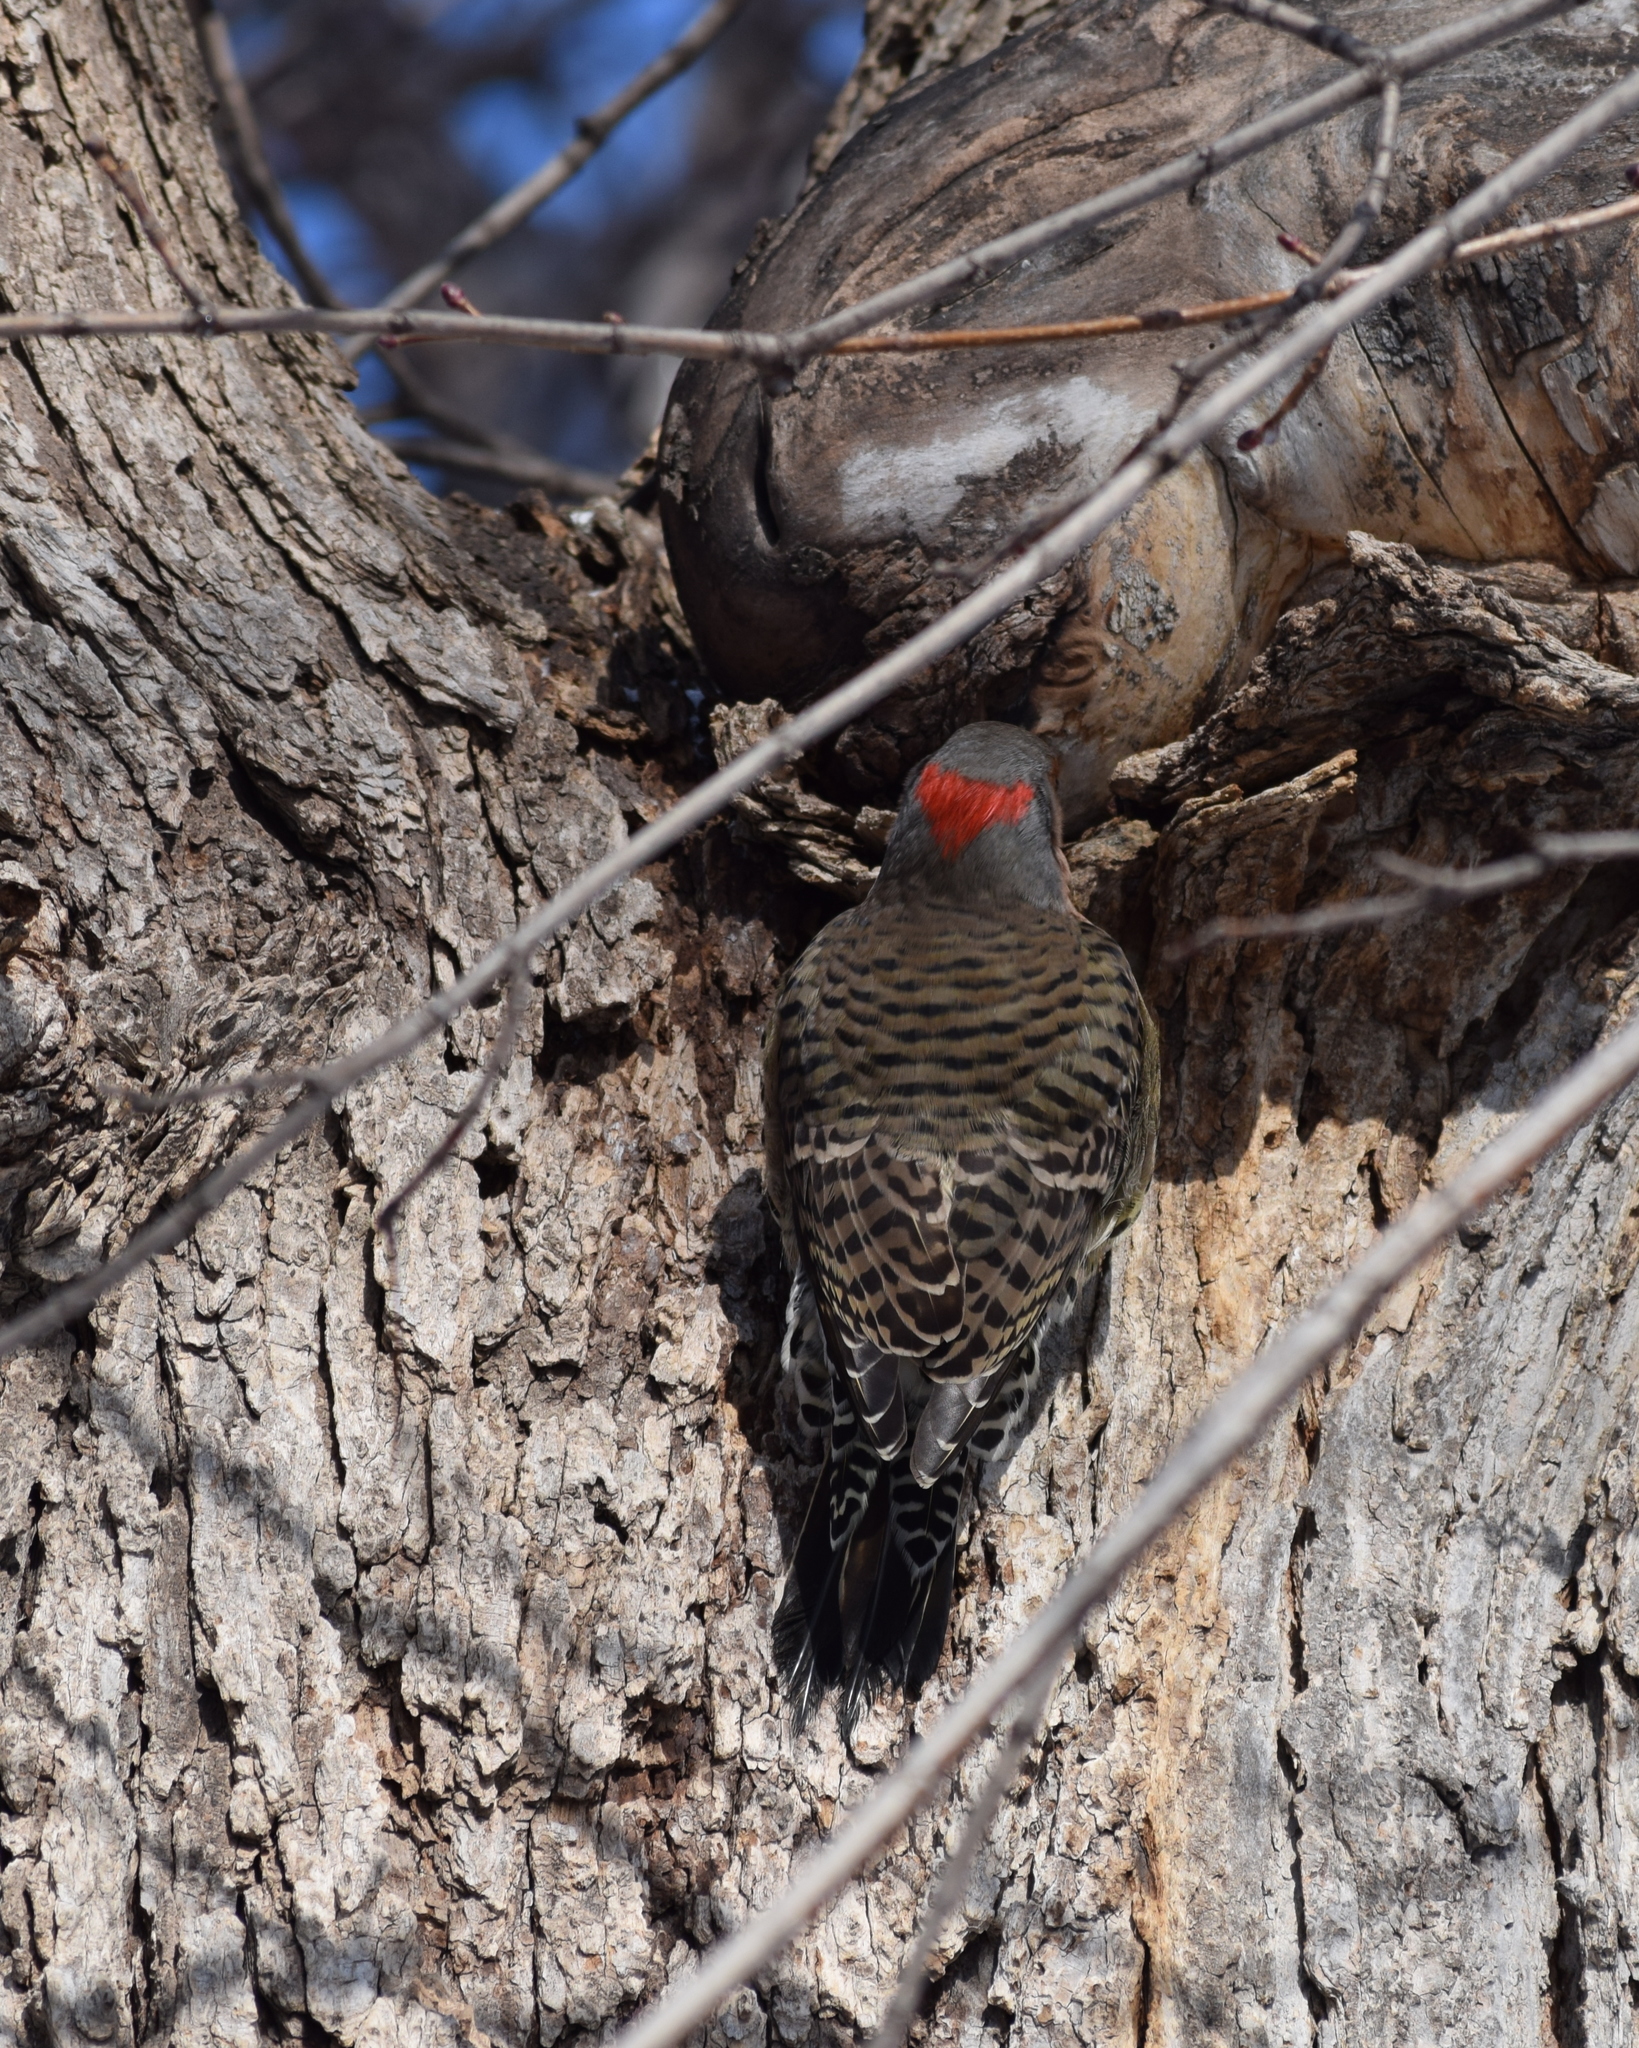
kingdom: Animalia
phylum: Chordata
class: Aves
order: Piciformes
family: Picidae
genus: Colaptes
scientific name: Colaptes auratus
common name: Northern flicker
